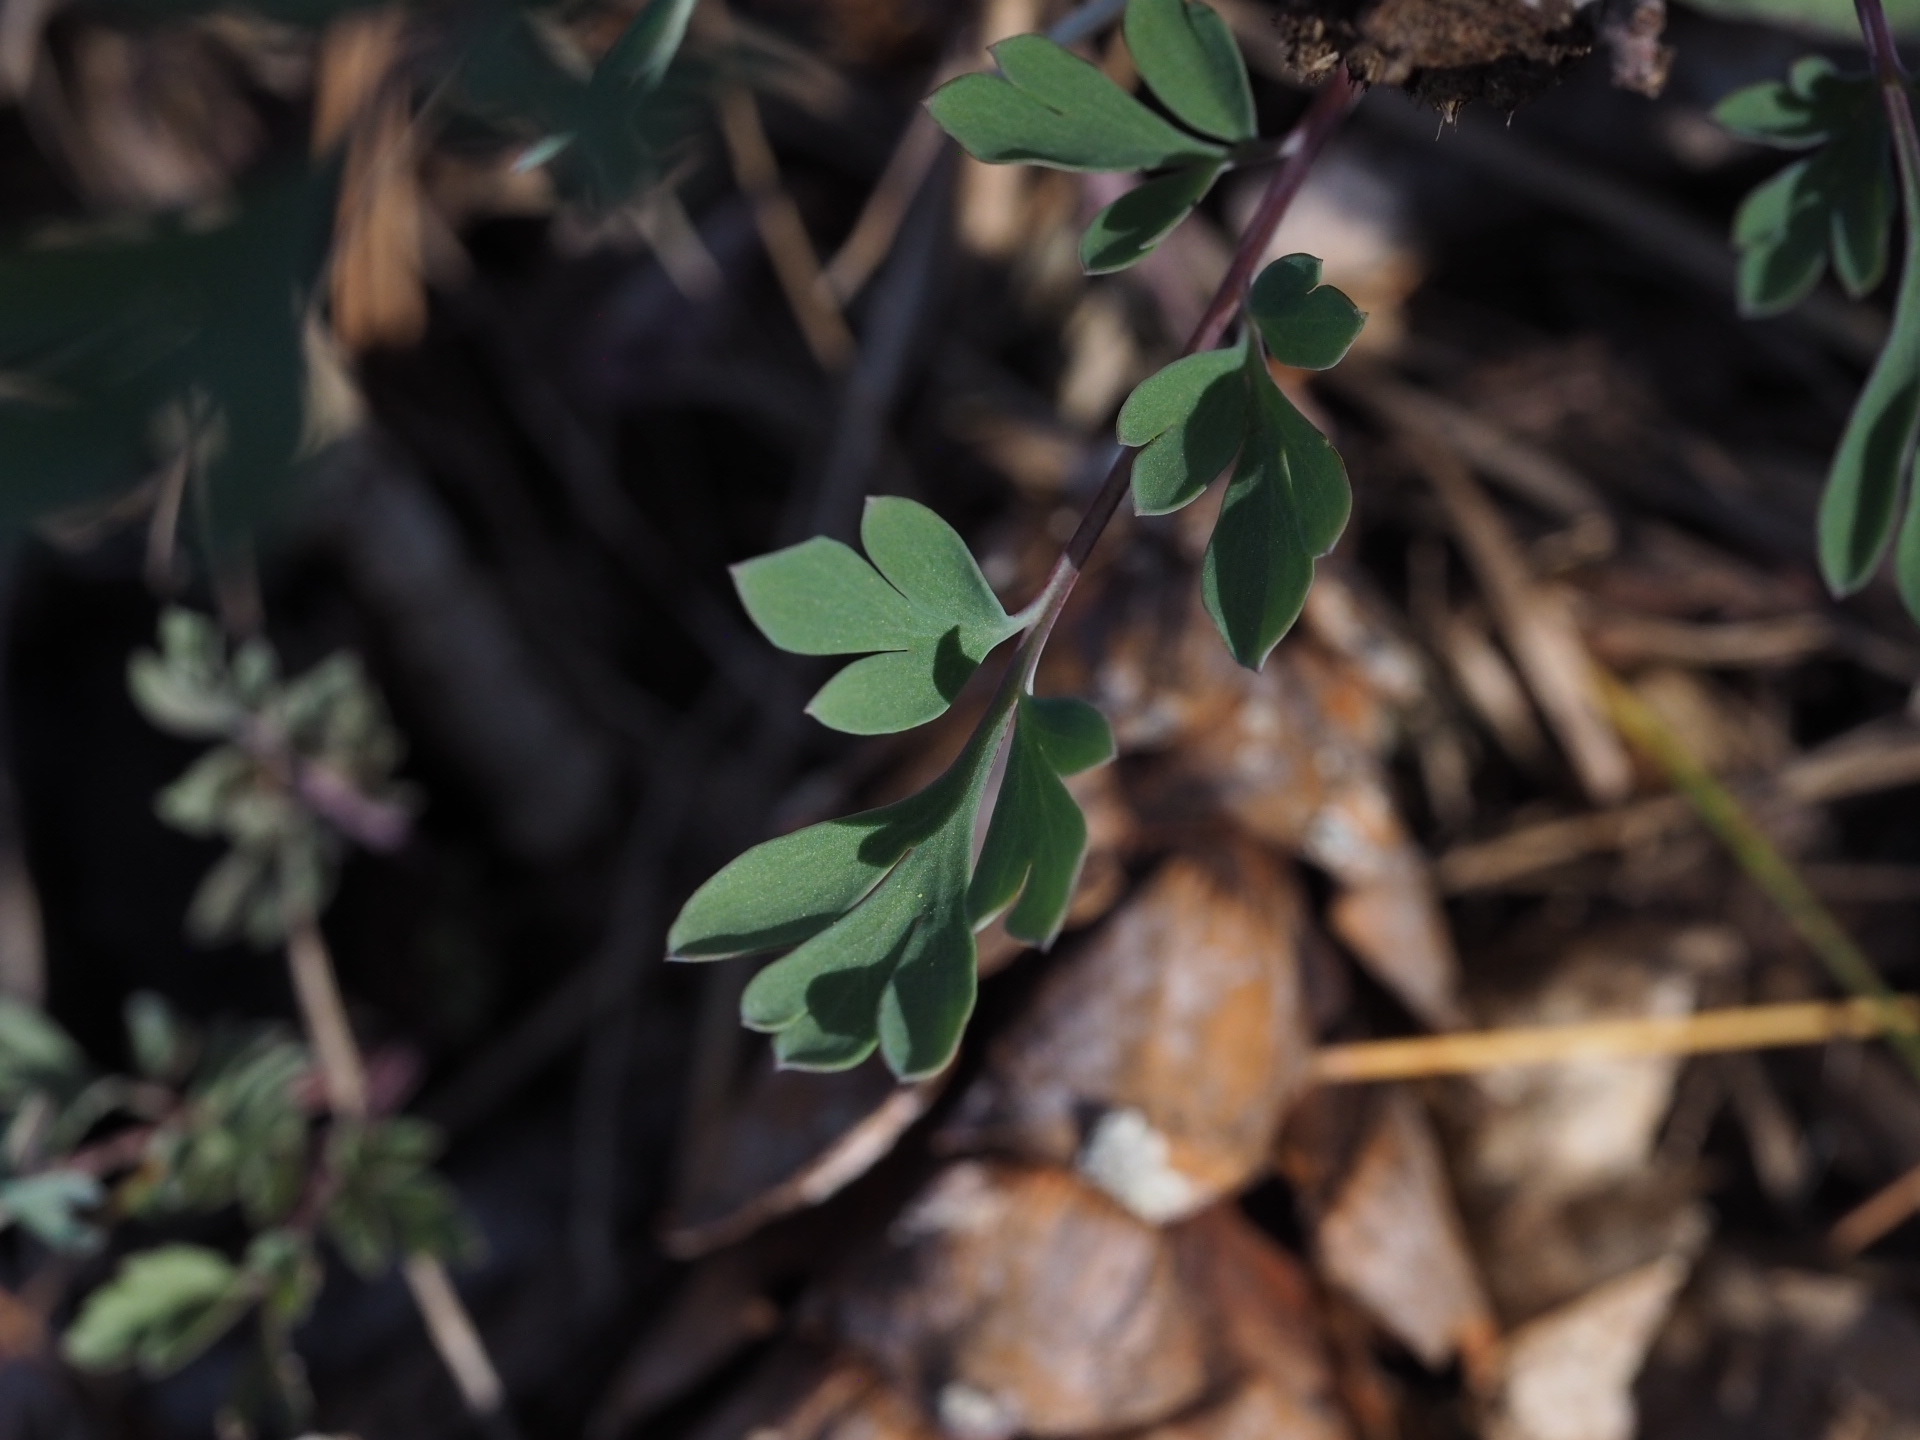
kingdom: Plantae
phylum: Tracheophyta
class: Magnoliopsida
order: Ranunculales
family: Papaveraceae
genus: Capnoides
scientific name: Capnoides sempervirens
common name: Rock harlequin
